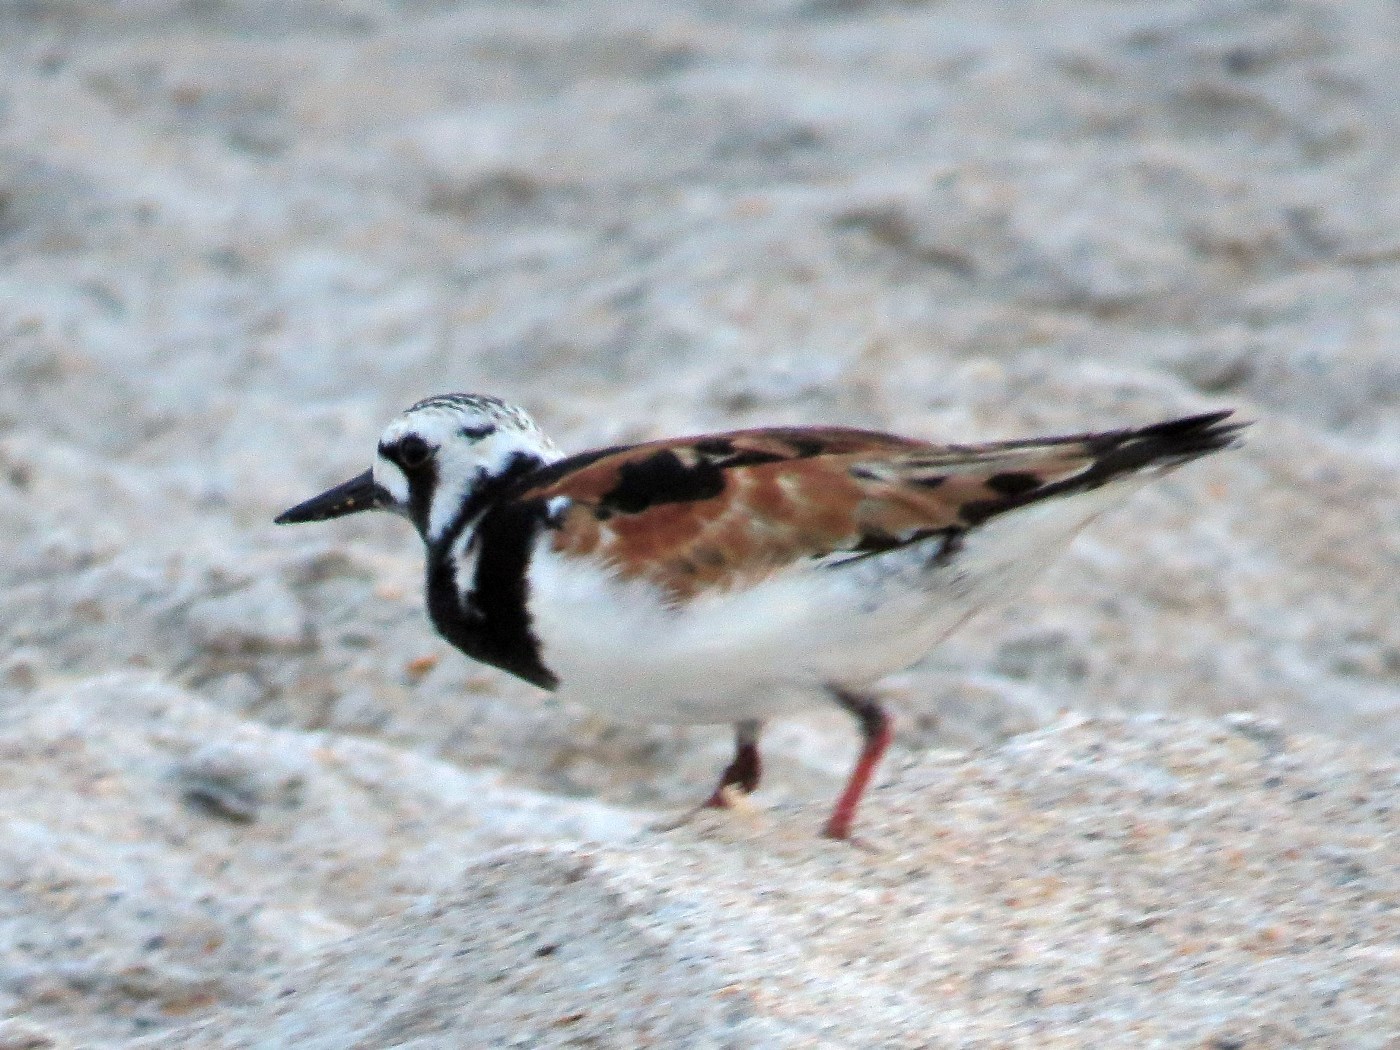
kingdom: Animalia
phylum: Chordata
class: Aves
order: Charadriiformes
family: Scolopacidae
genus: Arenaria
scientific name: Arenaria interpres
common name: Ruddy turnstone
